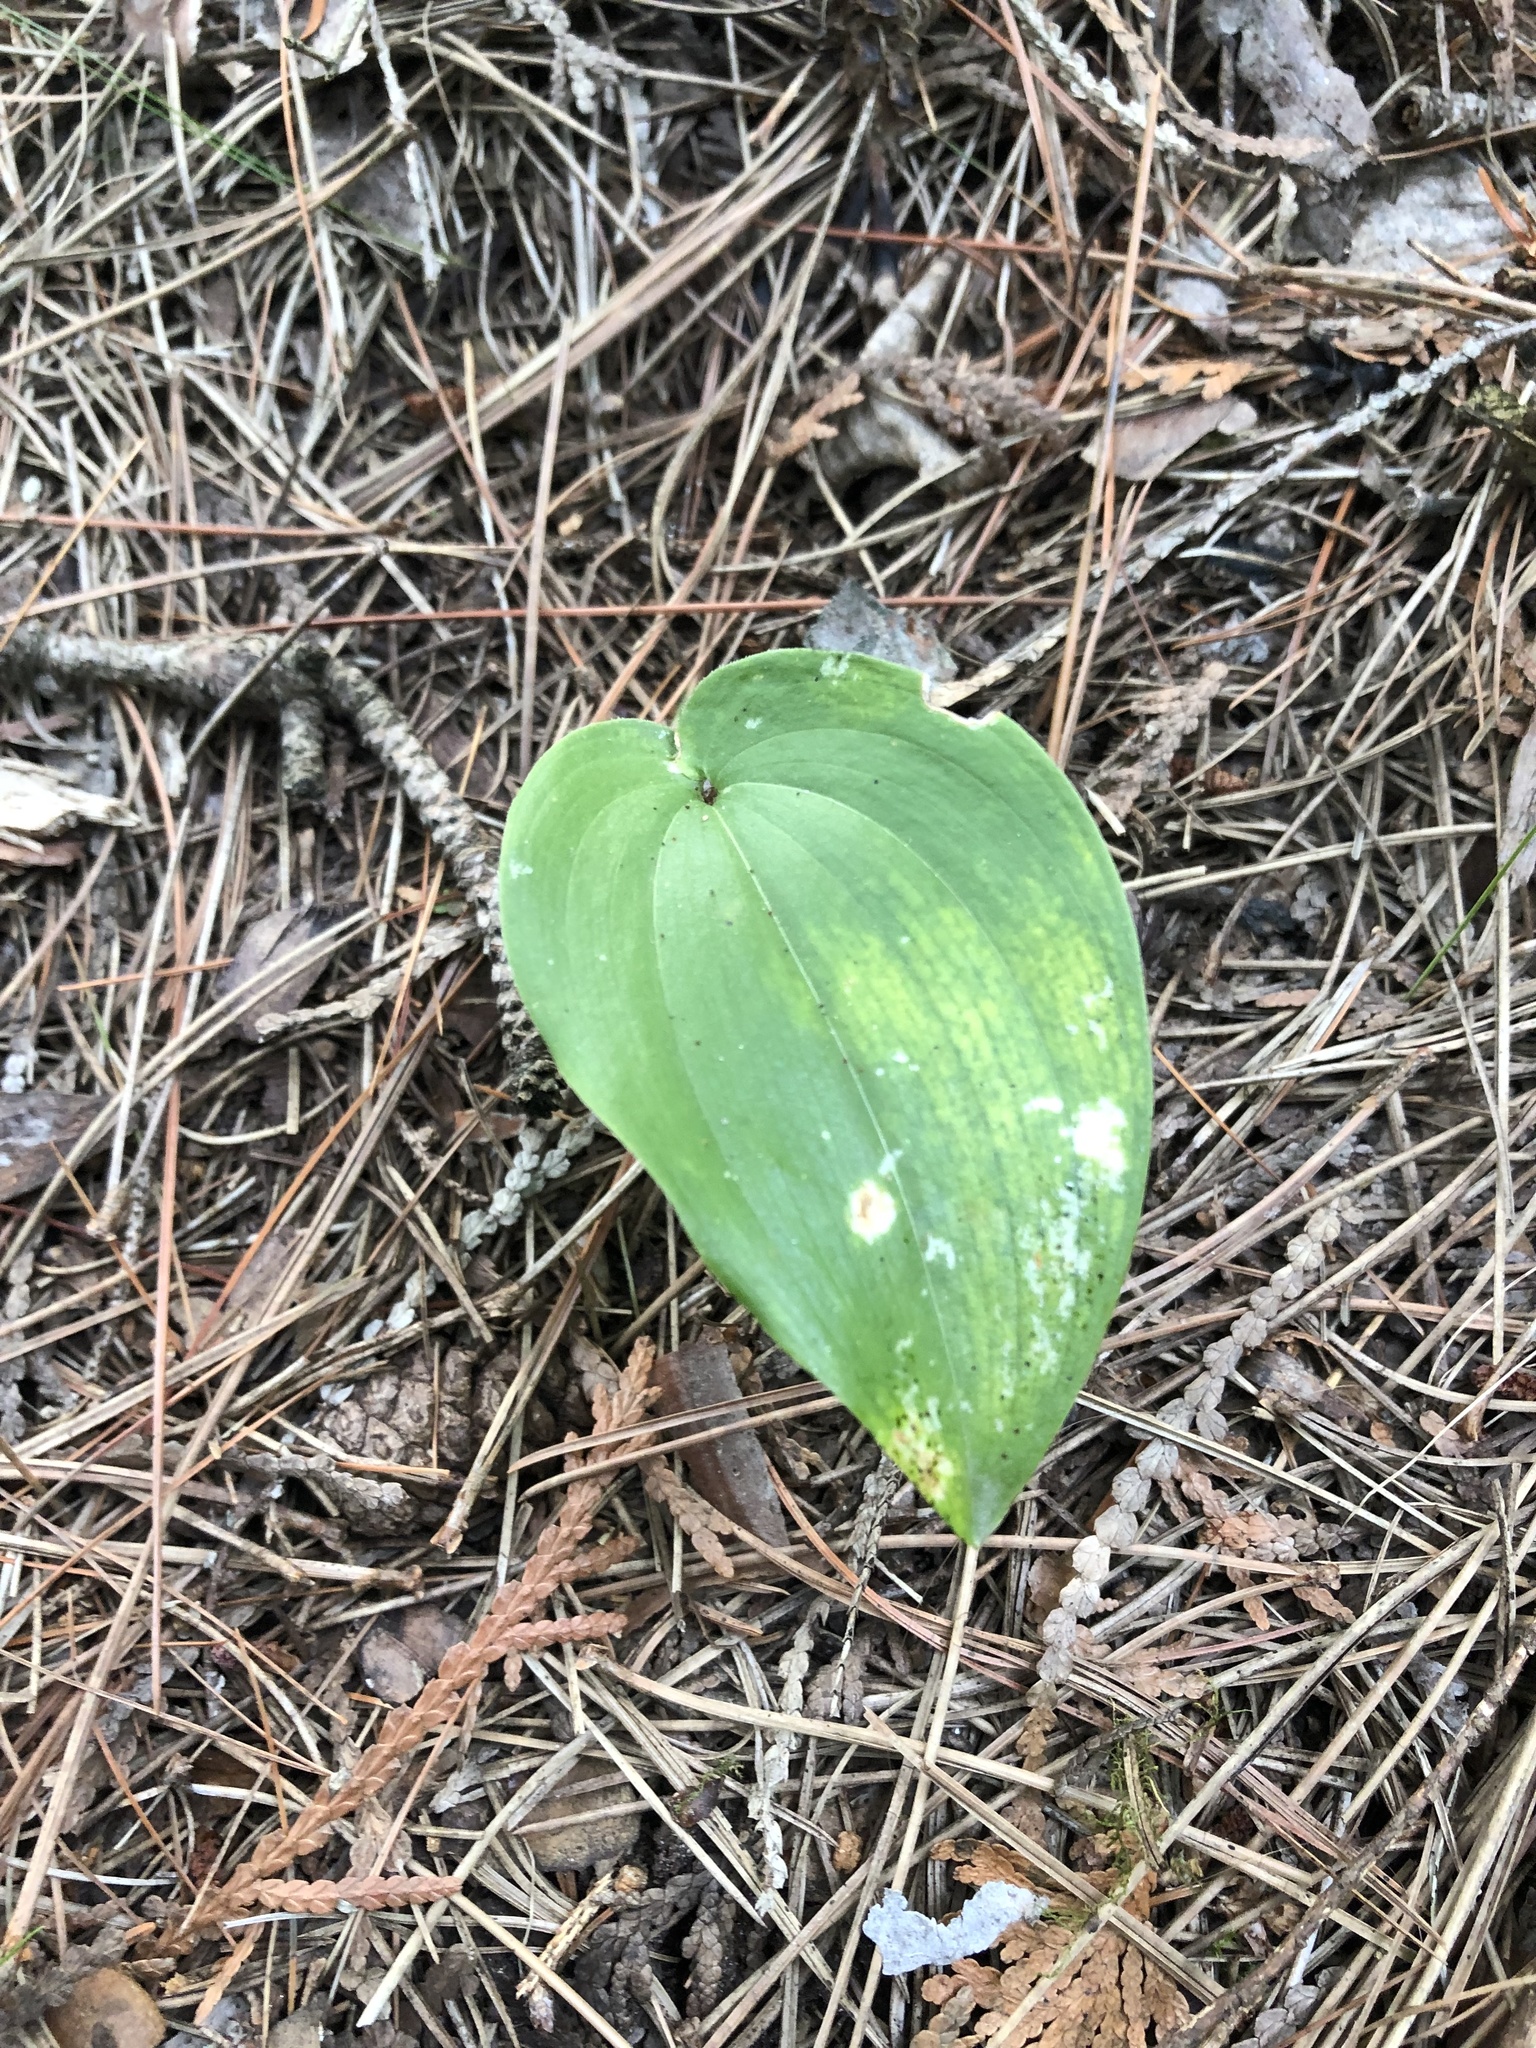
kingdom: Plantae
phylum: Tracheophyta
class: Liliopsida
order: Asparagales
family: Asparagaceae
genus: Maianthemum
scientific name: Maianthemum canadense
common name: False lily-of-the-valley
